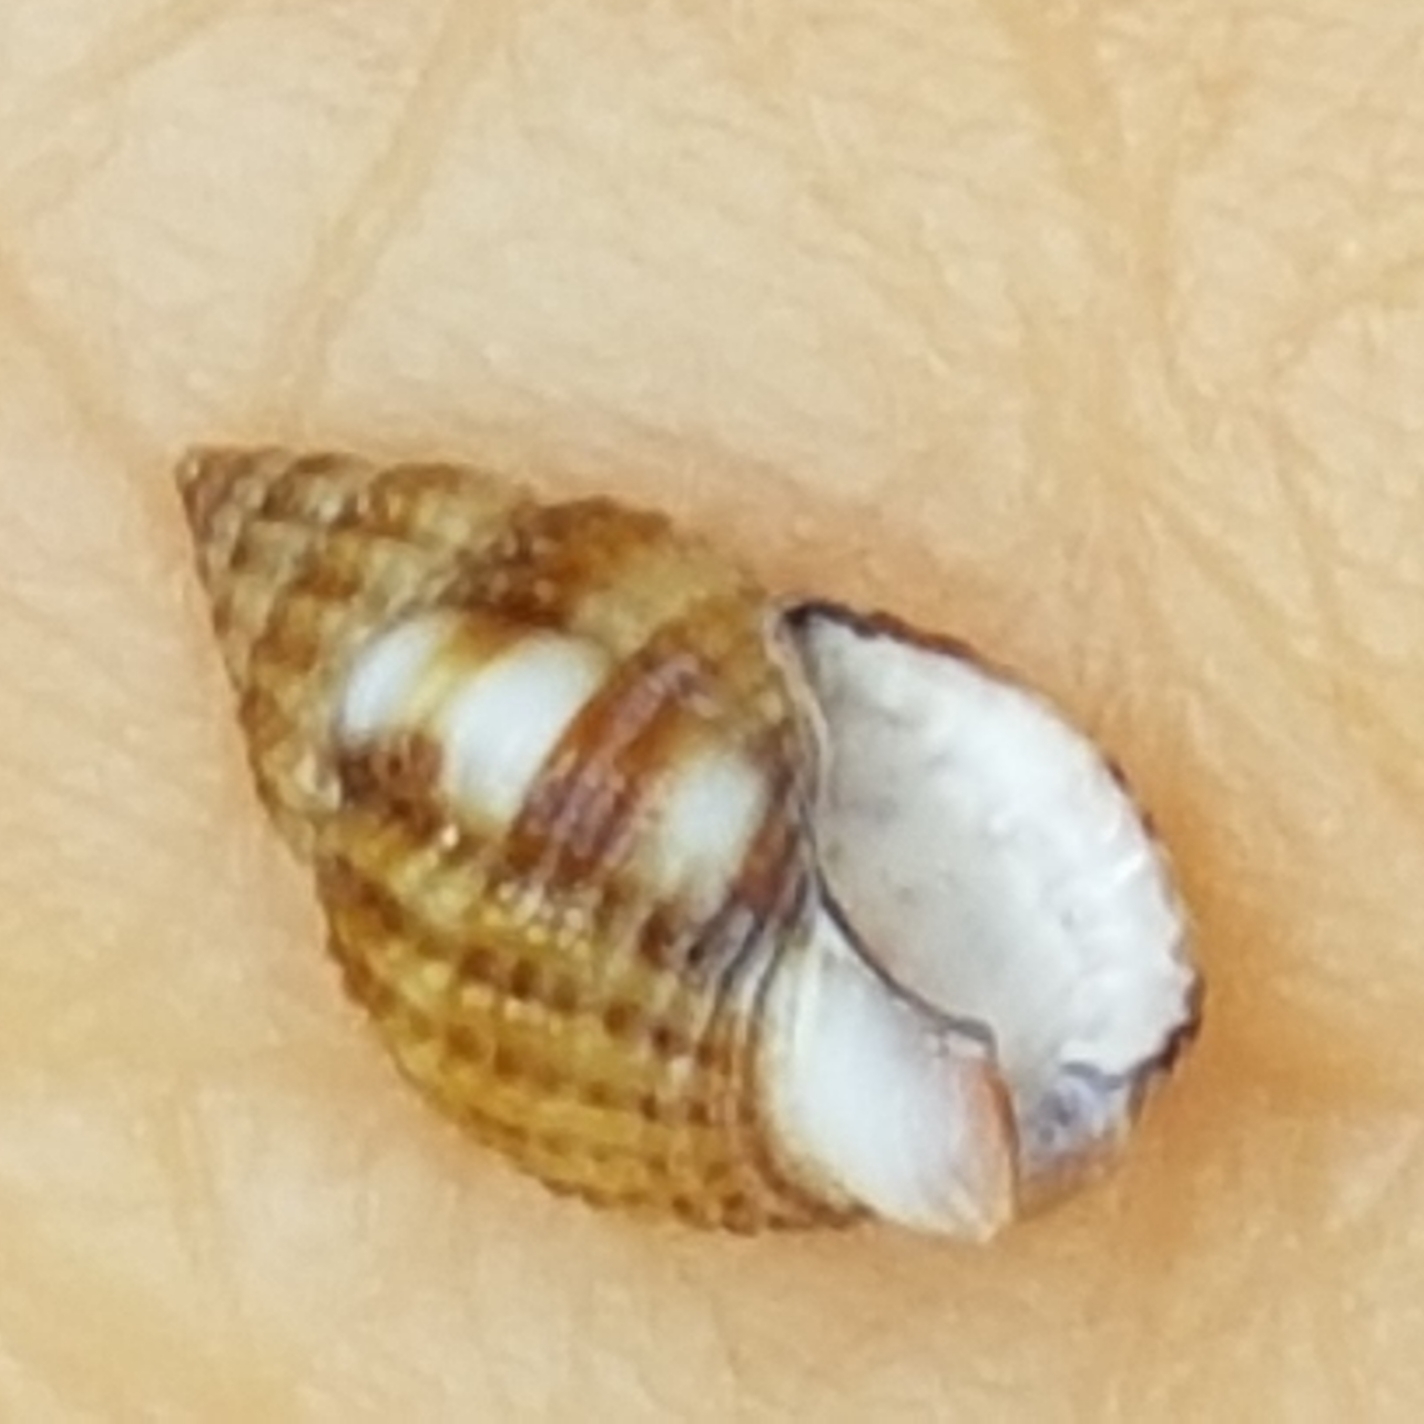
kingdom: Animalia
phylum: Mollusca
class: Gastropoda
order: Neogastropoda
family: Nassariidae
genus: Tritia
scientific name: Tritia varicosa
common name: Small dog whelk
